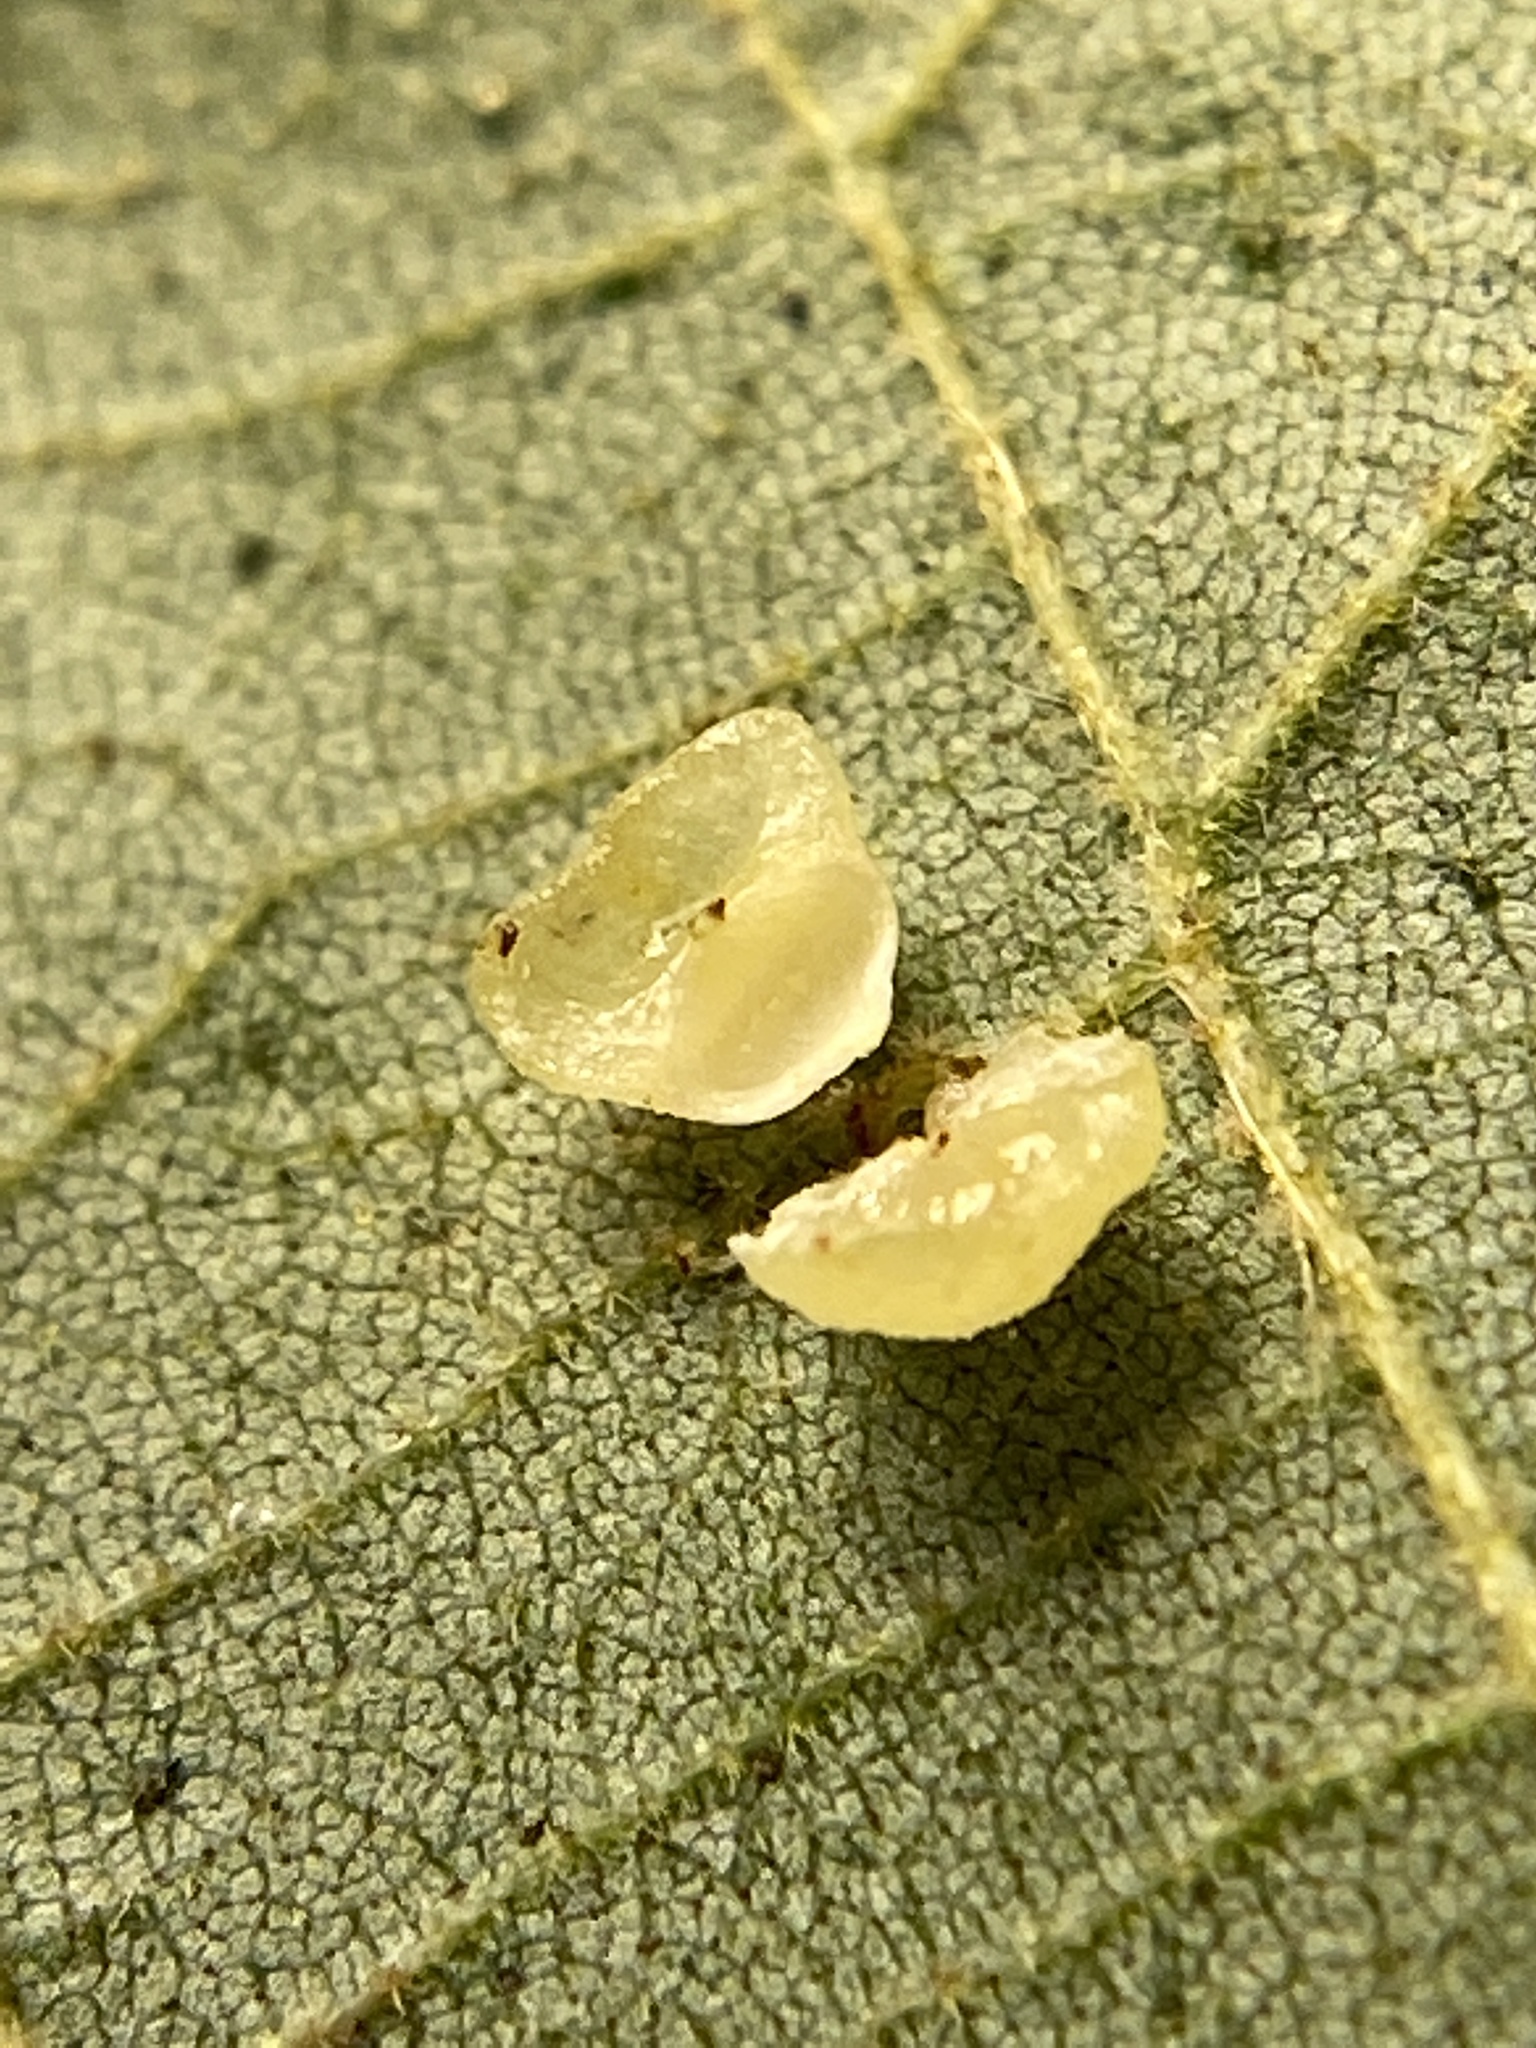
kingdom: Animalia
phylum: Arthropoda
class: Insecta
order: Diptera
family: Cecidomyiidae
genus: Caryomyia
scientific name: Caryomyia lenta
